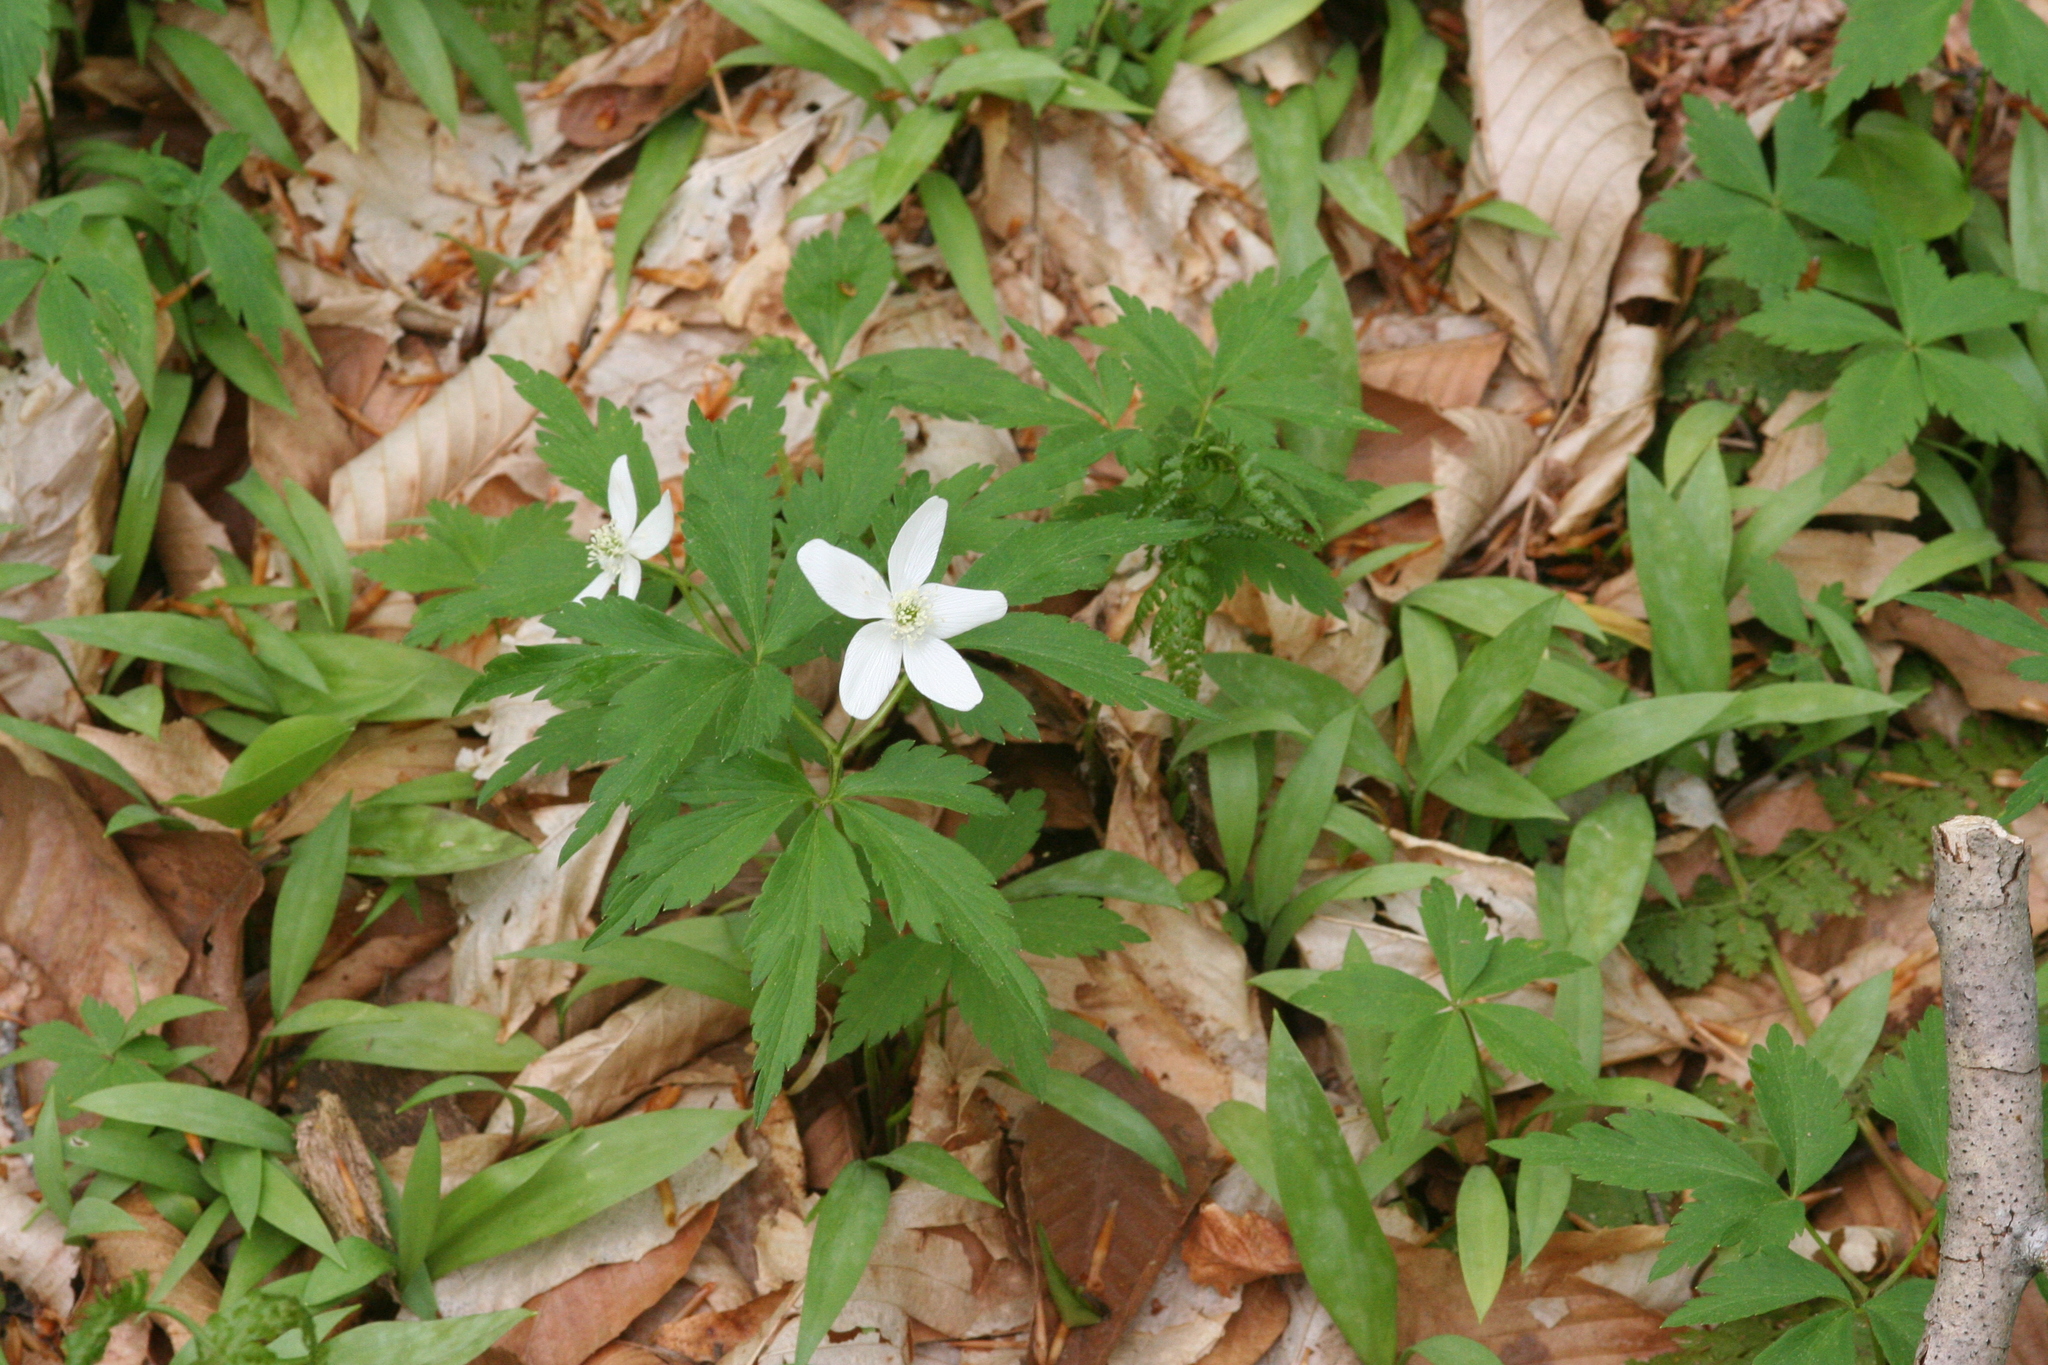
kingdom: Plantae
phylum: Tracheophyta
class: Magnoliopsida
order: Ranunculales
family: Ranunculaceae
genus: Anemone
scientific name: Anemone quinquefolia
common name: Wood anemone
